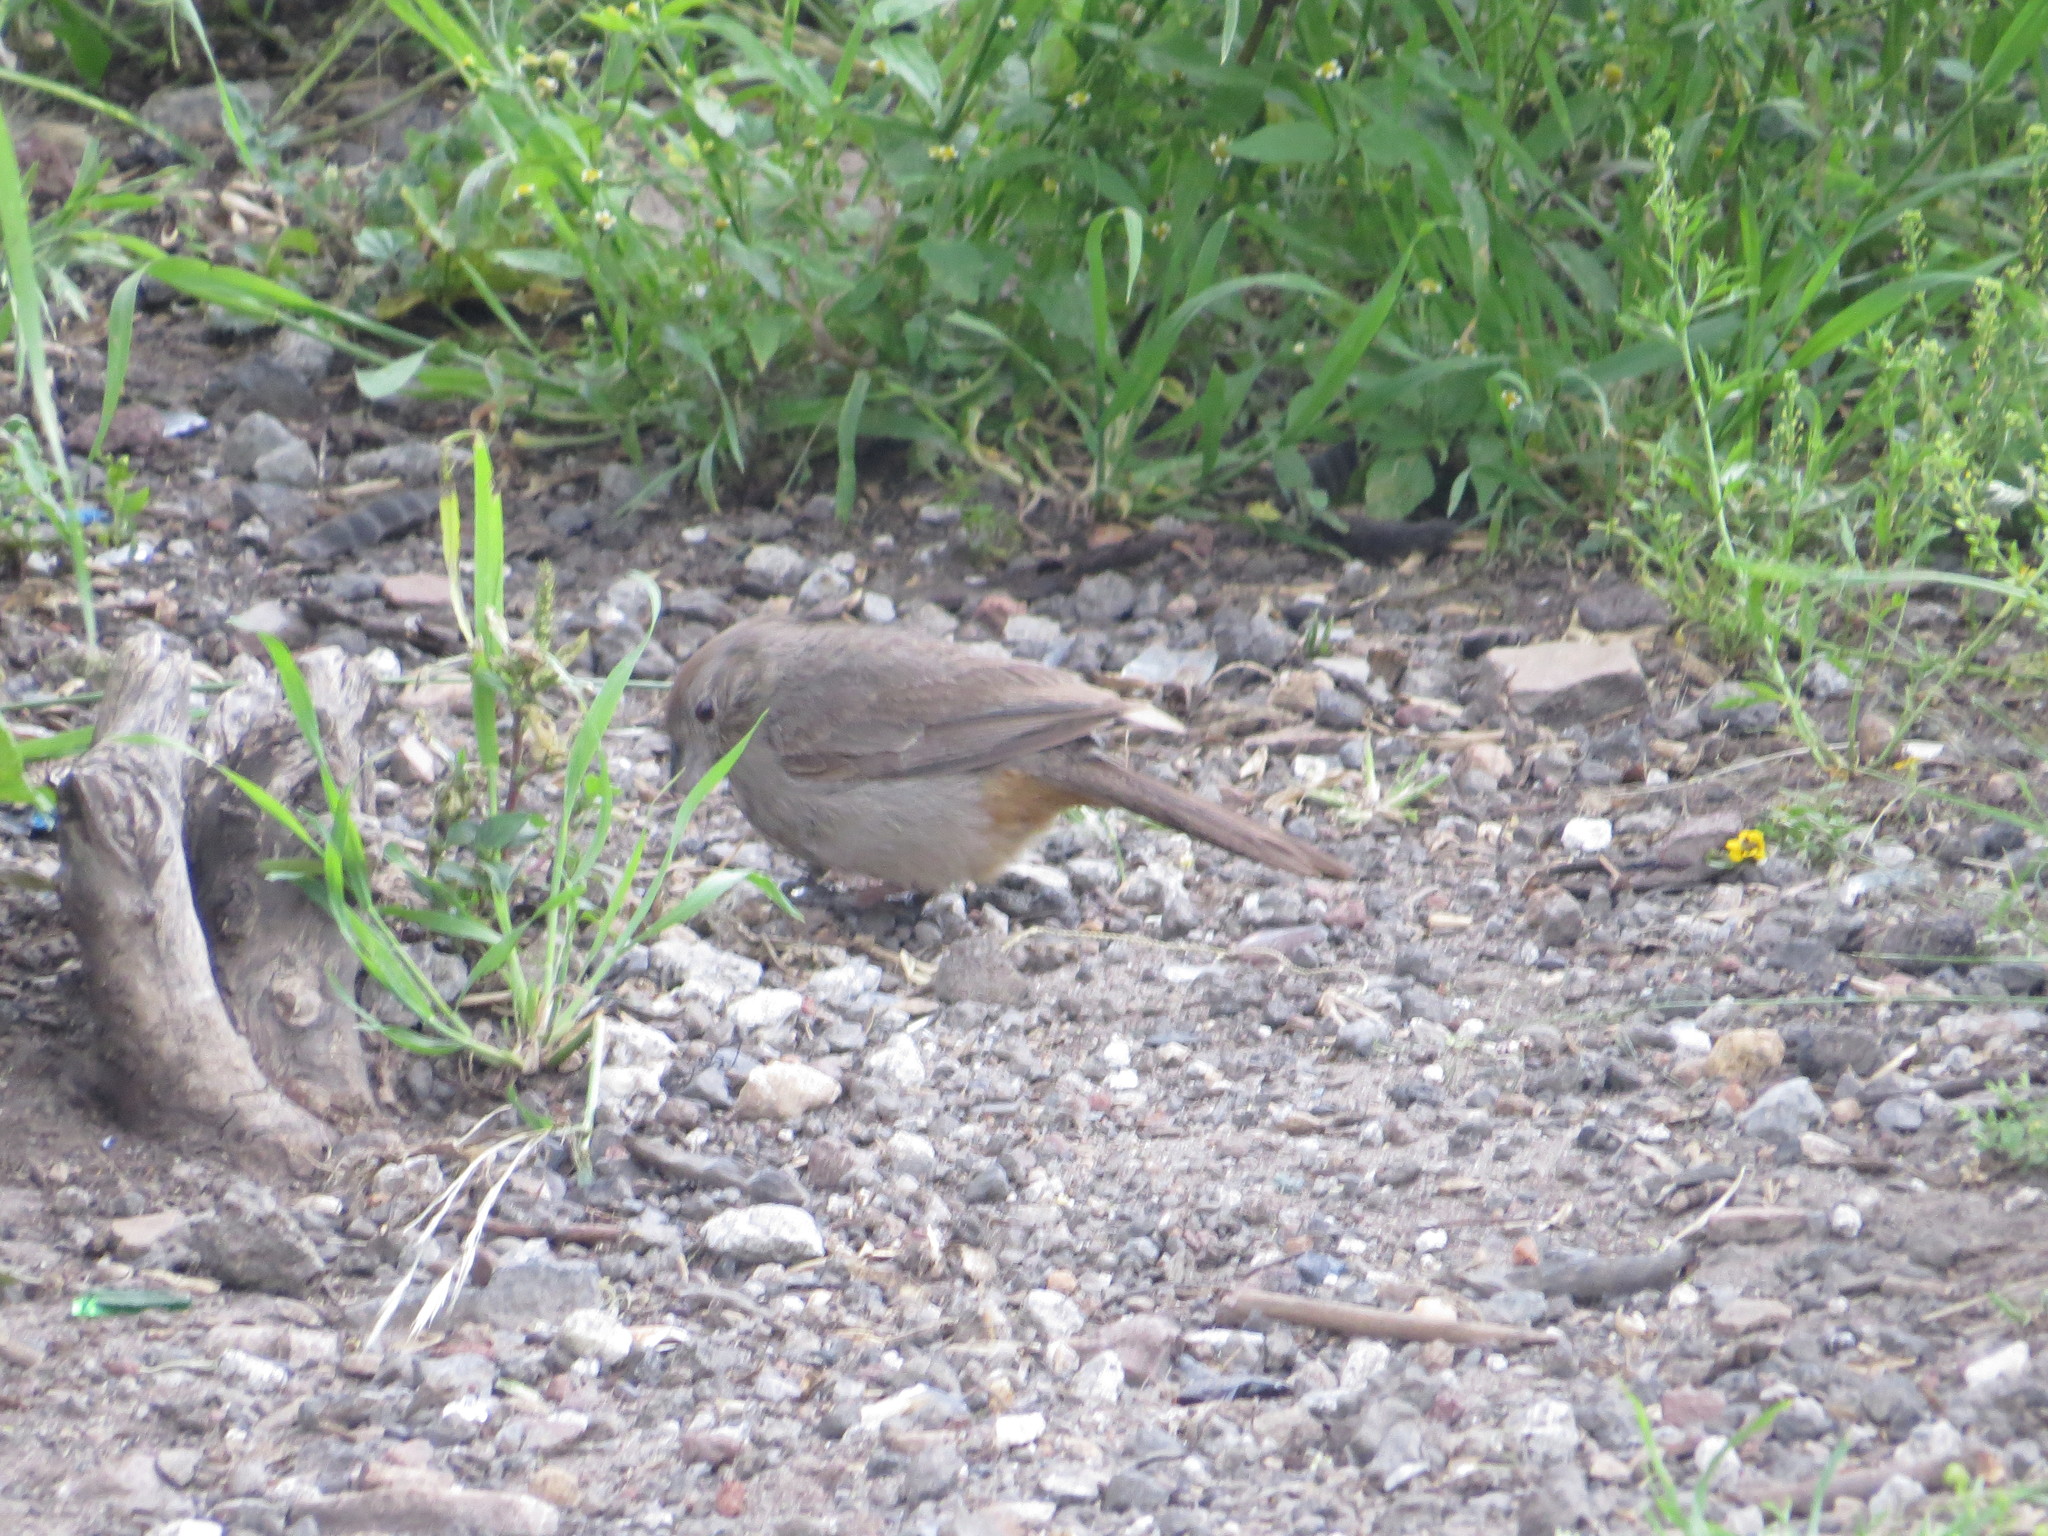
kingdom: Animalia
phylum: Chordata
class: Aves
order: Passeriformes
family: Passerellidae
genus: Melozone
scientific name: Melozone fusca
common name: Canyon towhee
